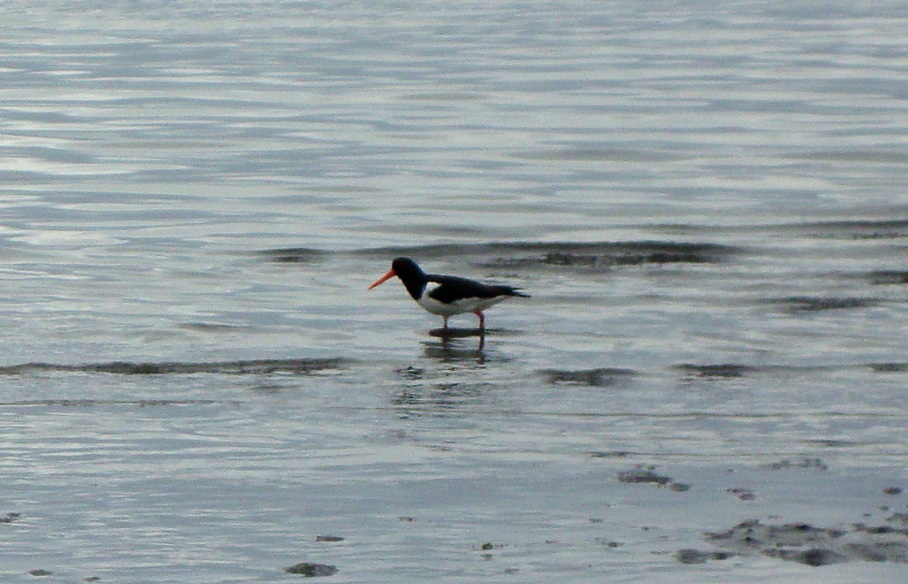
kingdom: Animalia
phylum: Chordata
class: Aves
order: Charadriiformes
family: Haematopodidae
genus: Haematopus
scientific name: Haematopus ostralegus
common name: Eurasian oystercatcher
